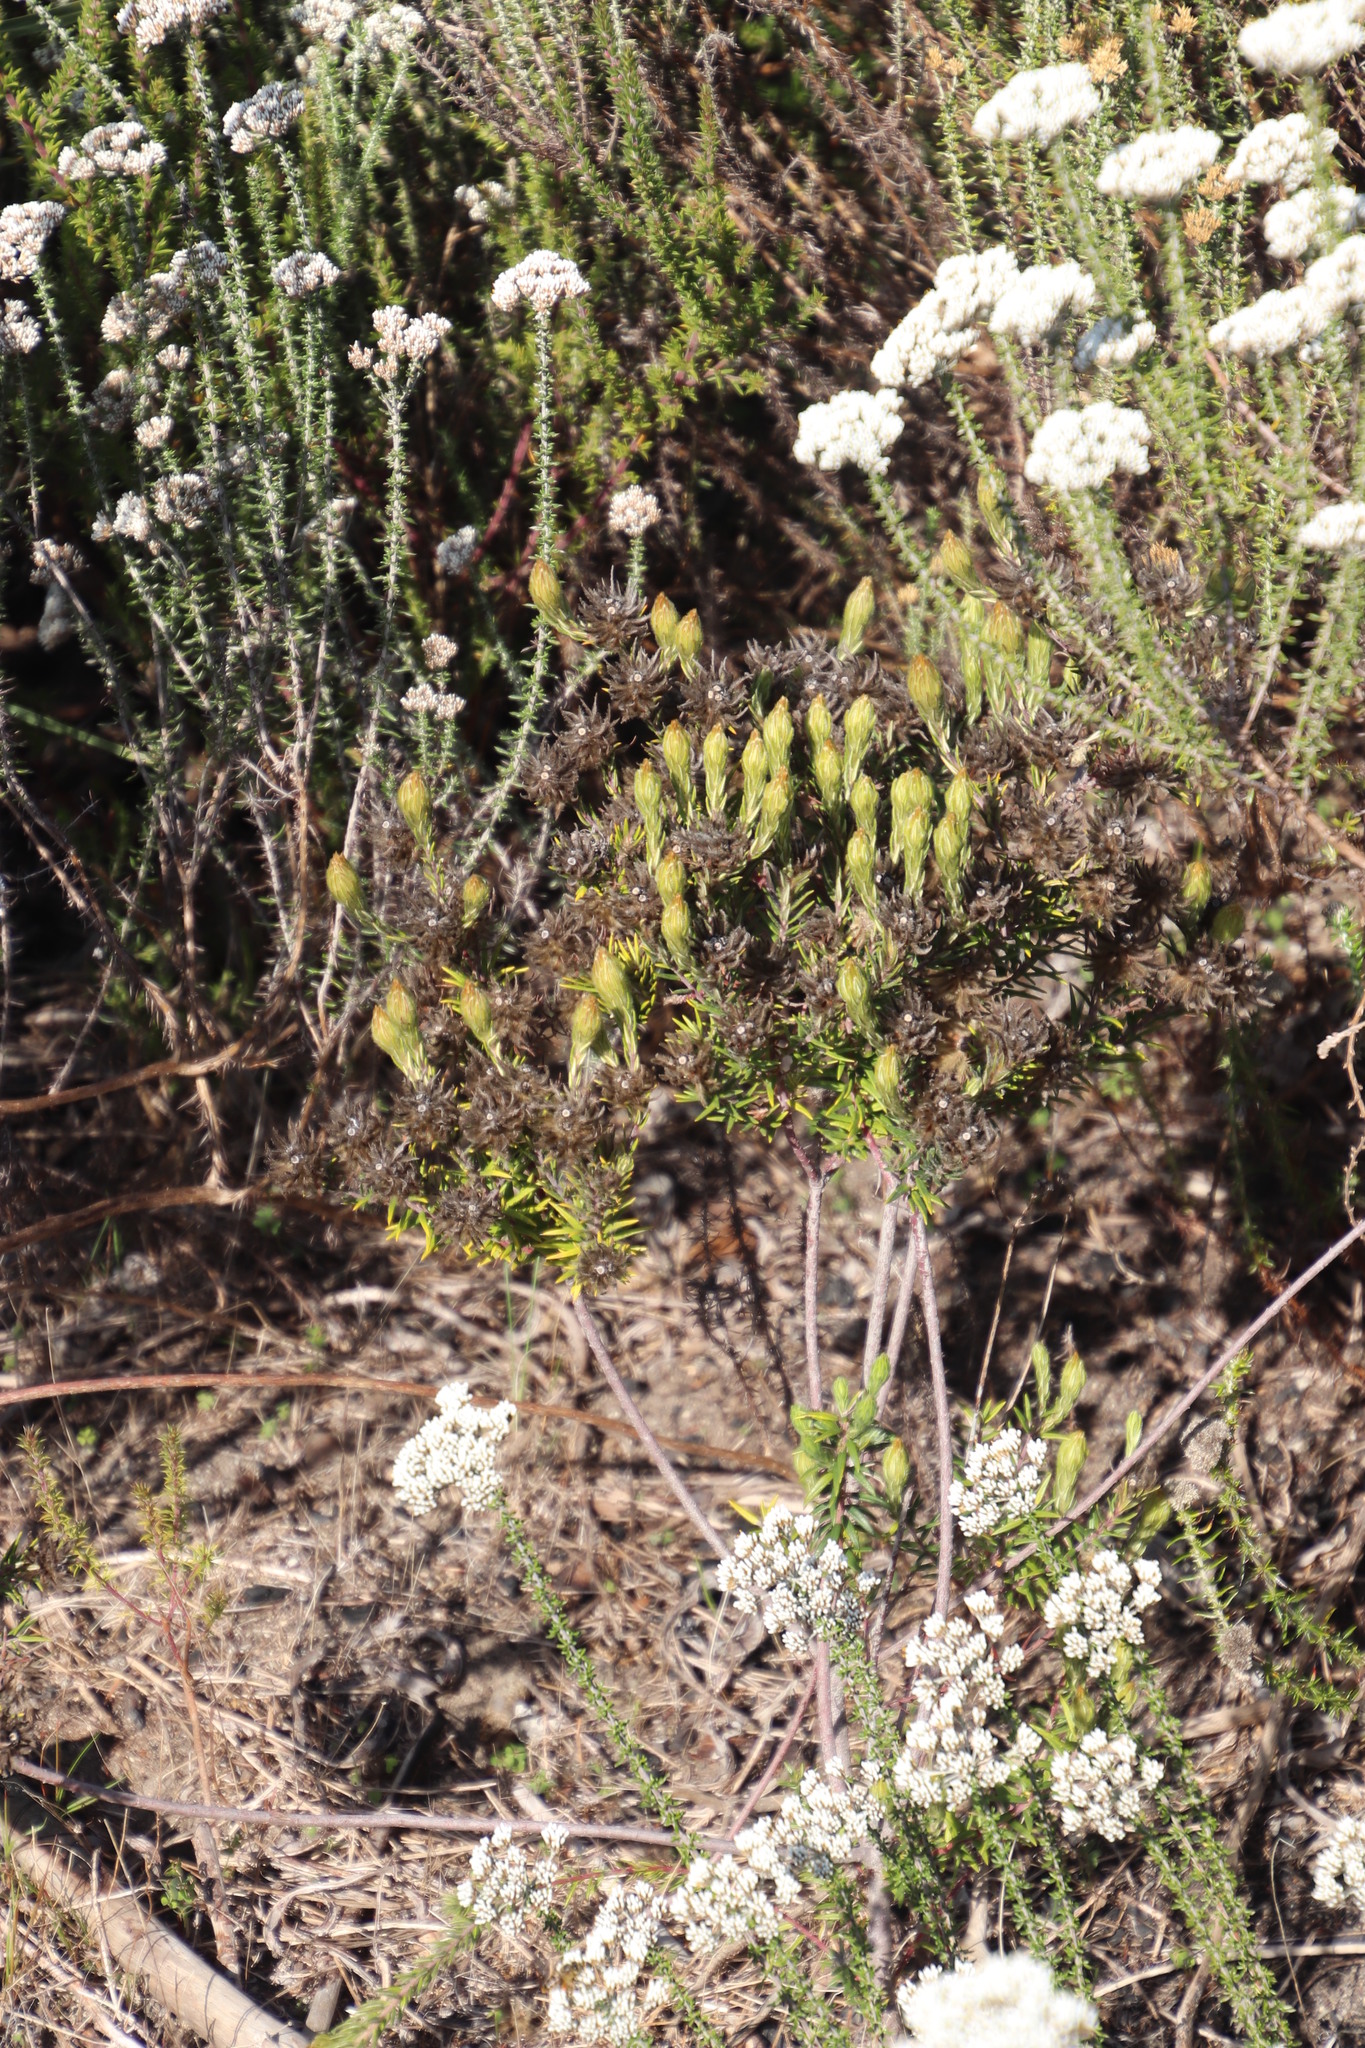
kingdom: Plantae
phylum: Tracheophyta
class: Magnoliopsida
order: Rosales
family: Rhamnaceae
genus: Phylica
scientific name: Phylica pubescens
